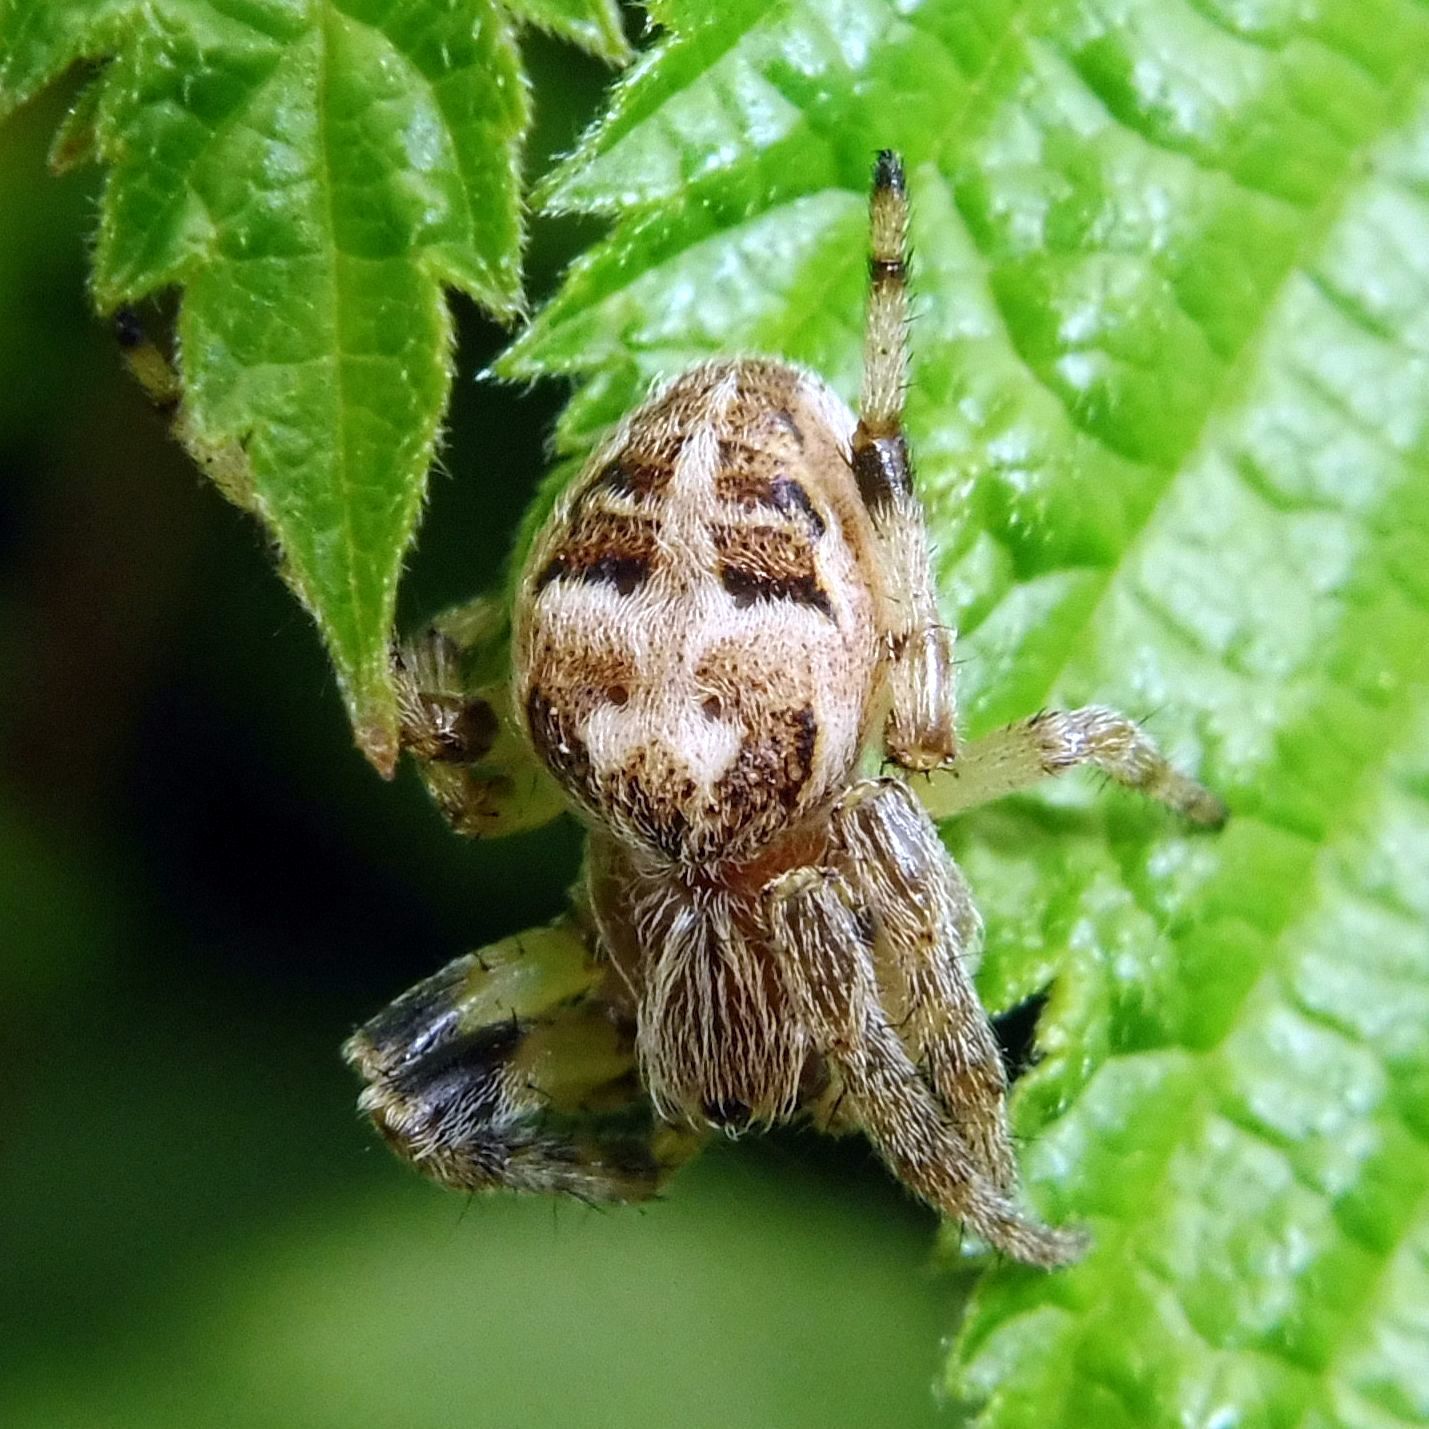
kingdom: Animalia
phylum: Arthropoda
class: Arachnida
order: Araneae
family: Araneidae
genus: Larinioides
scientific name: Larinioides cornutus
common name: Furrow orbweaver
